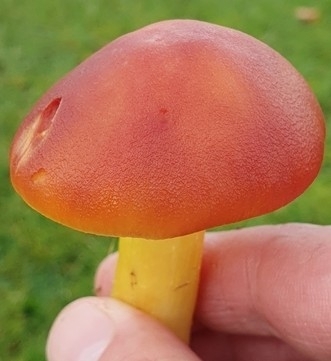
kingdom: Fungi
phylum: Basidiomycota
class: Agaricomycetes
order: Agaricales
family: Hygrophoraceae
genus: Hygrocybe
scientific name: Hygrocybe punicea
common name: Crimson waxcap
